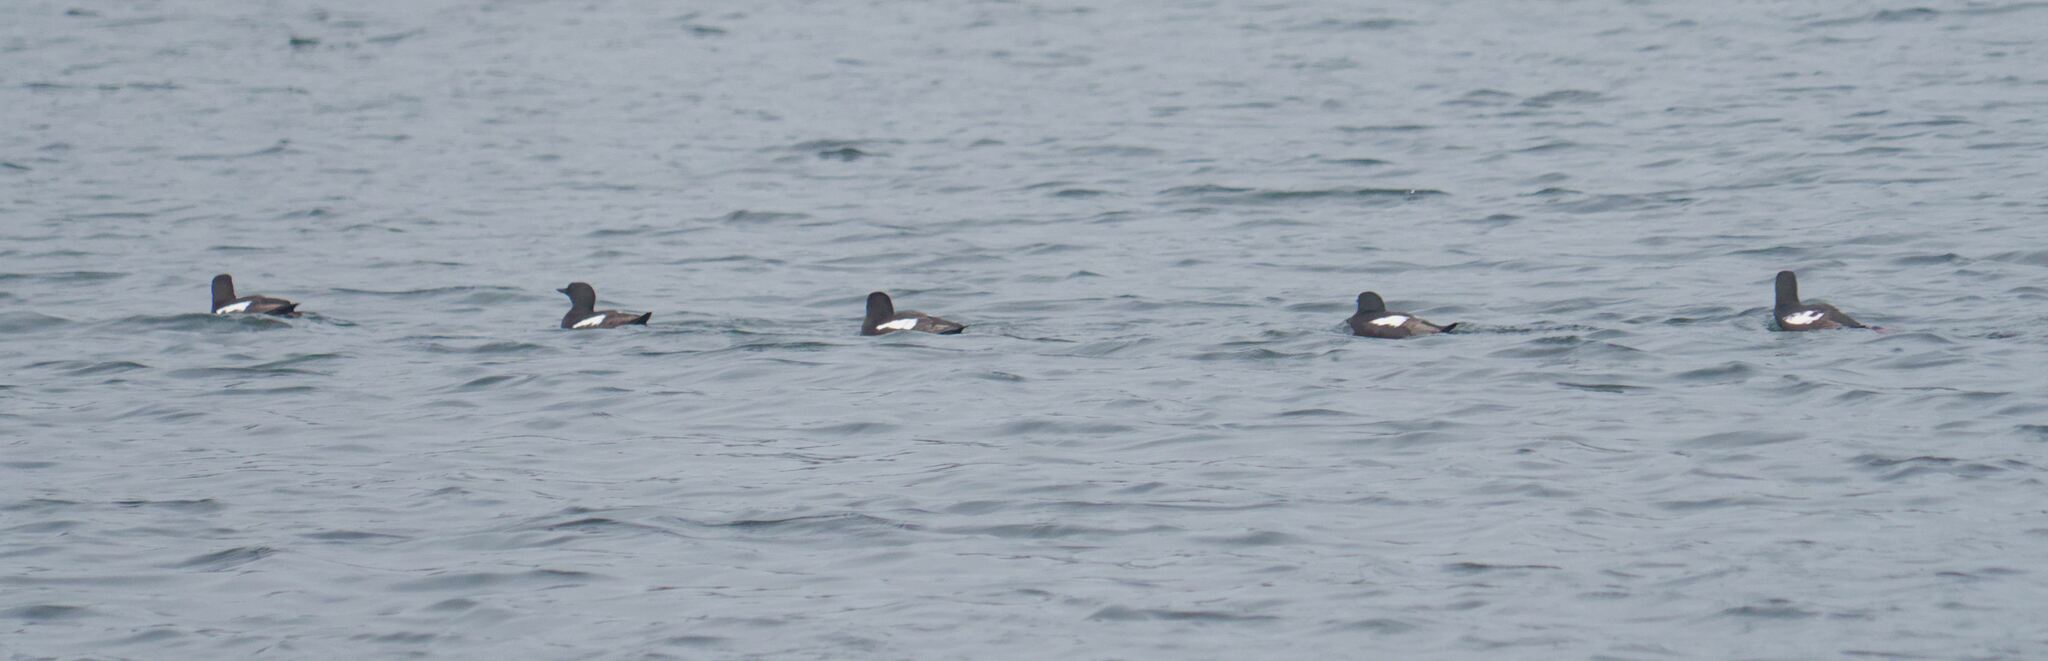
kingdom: Animalia
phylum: Chordata
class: Aves
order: Charadriiformes
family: Alcidae
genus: Cepphus
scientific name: Cepphus grylle
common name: Black guillemot
